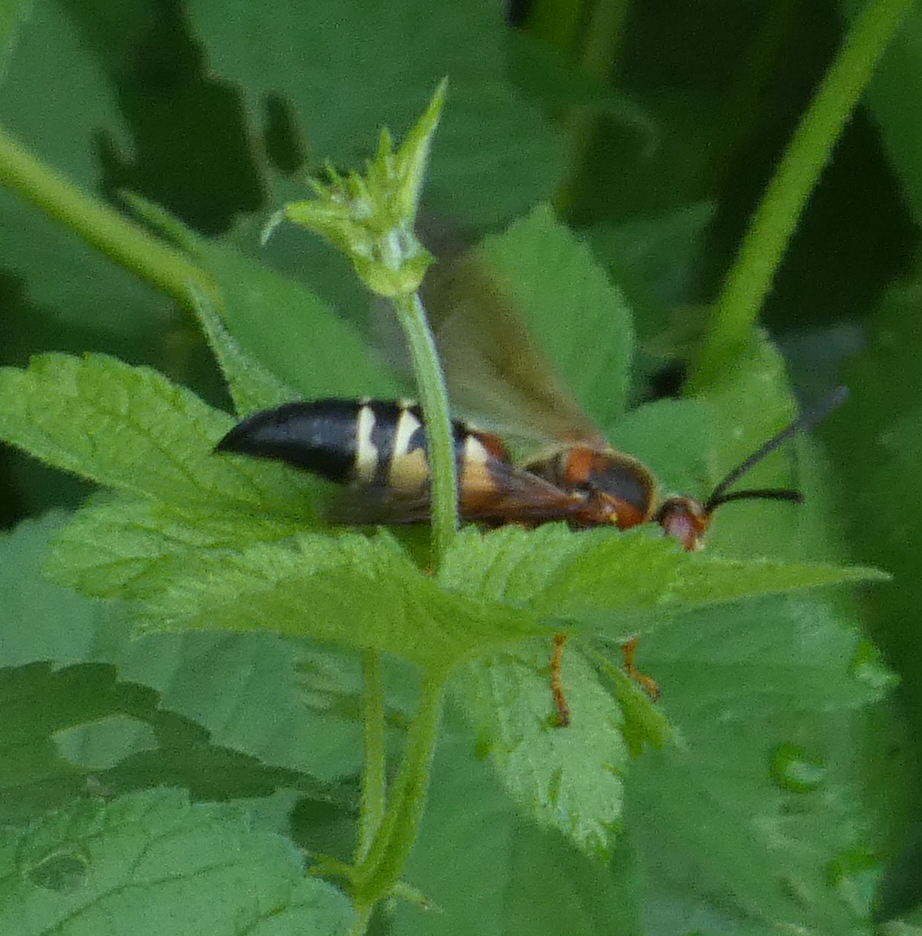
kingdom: Animalia
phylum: Arthropoda
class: Insecta
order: Hymenoptera
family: Crabronidae
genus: Sphecius
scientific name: Sphecius speciosus
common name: Cicada killer
